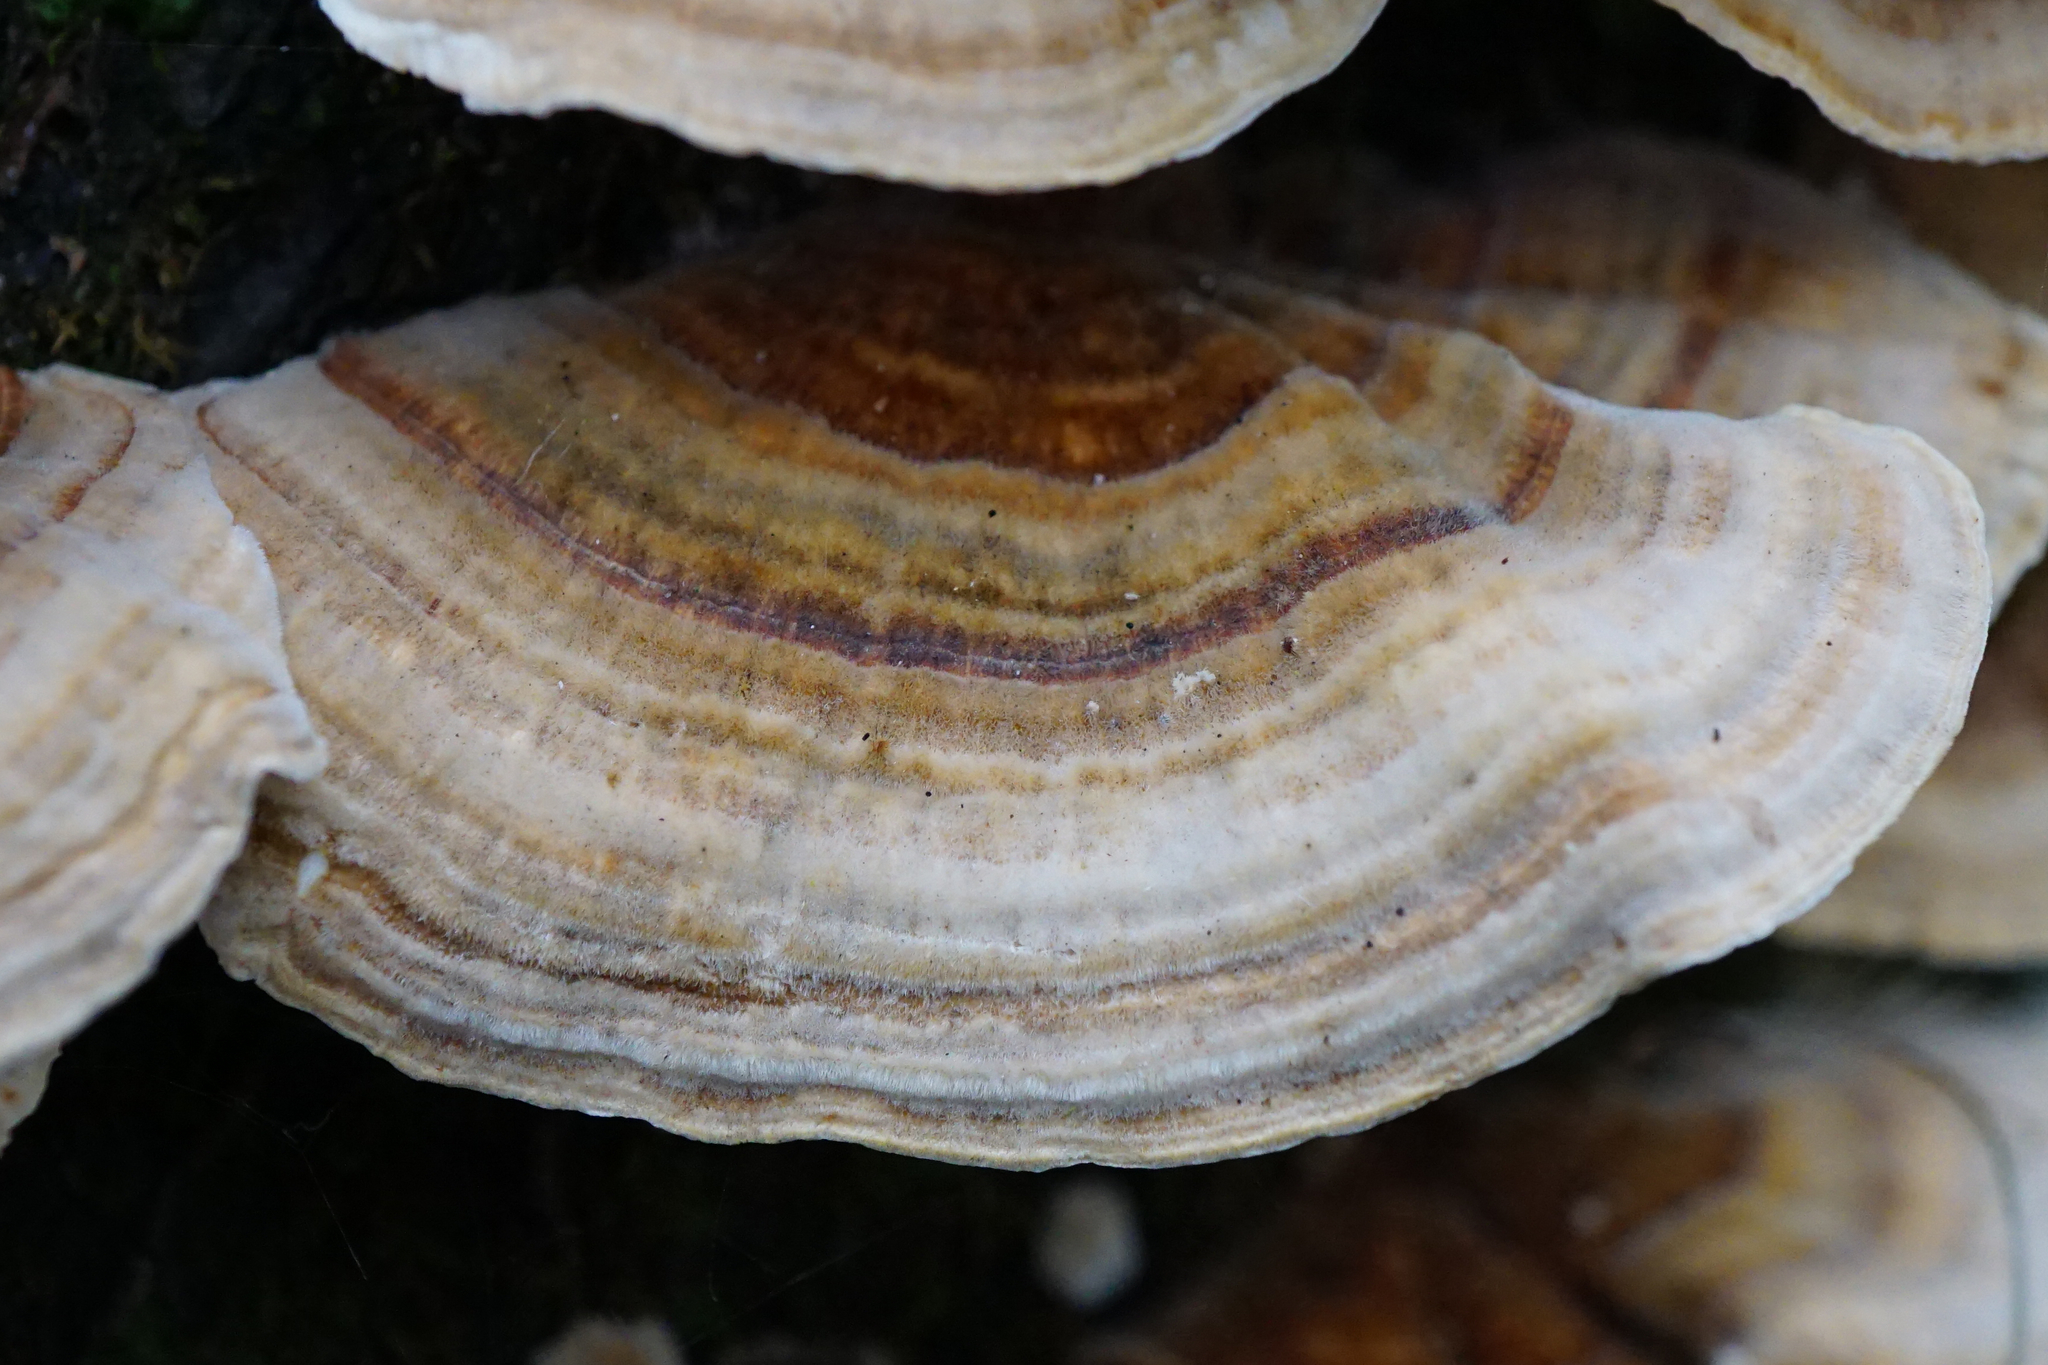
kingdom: Fungi
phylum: Basidiomycota
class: Agaricomycetes
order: Polyporales
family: Polyporaceae
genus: Trametes
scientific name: Trametes versicolor
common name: Turkeytail
